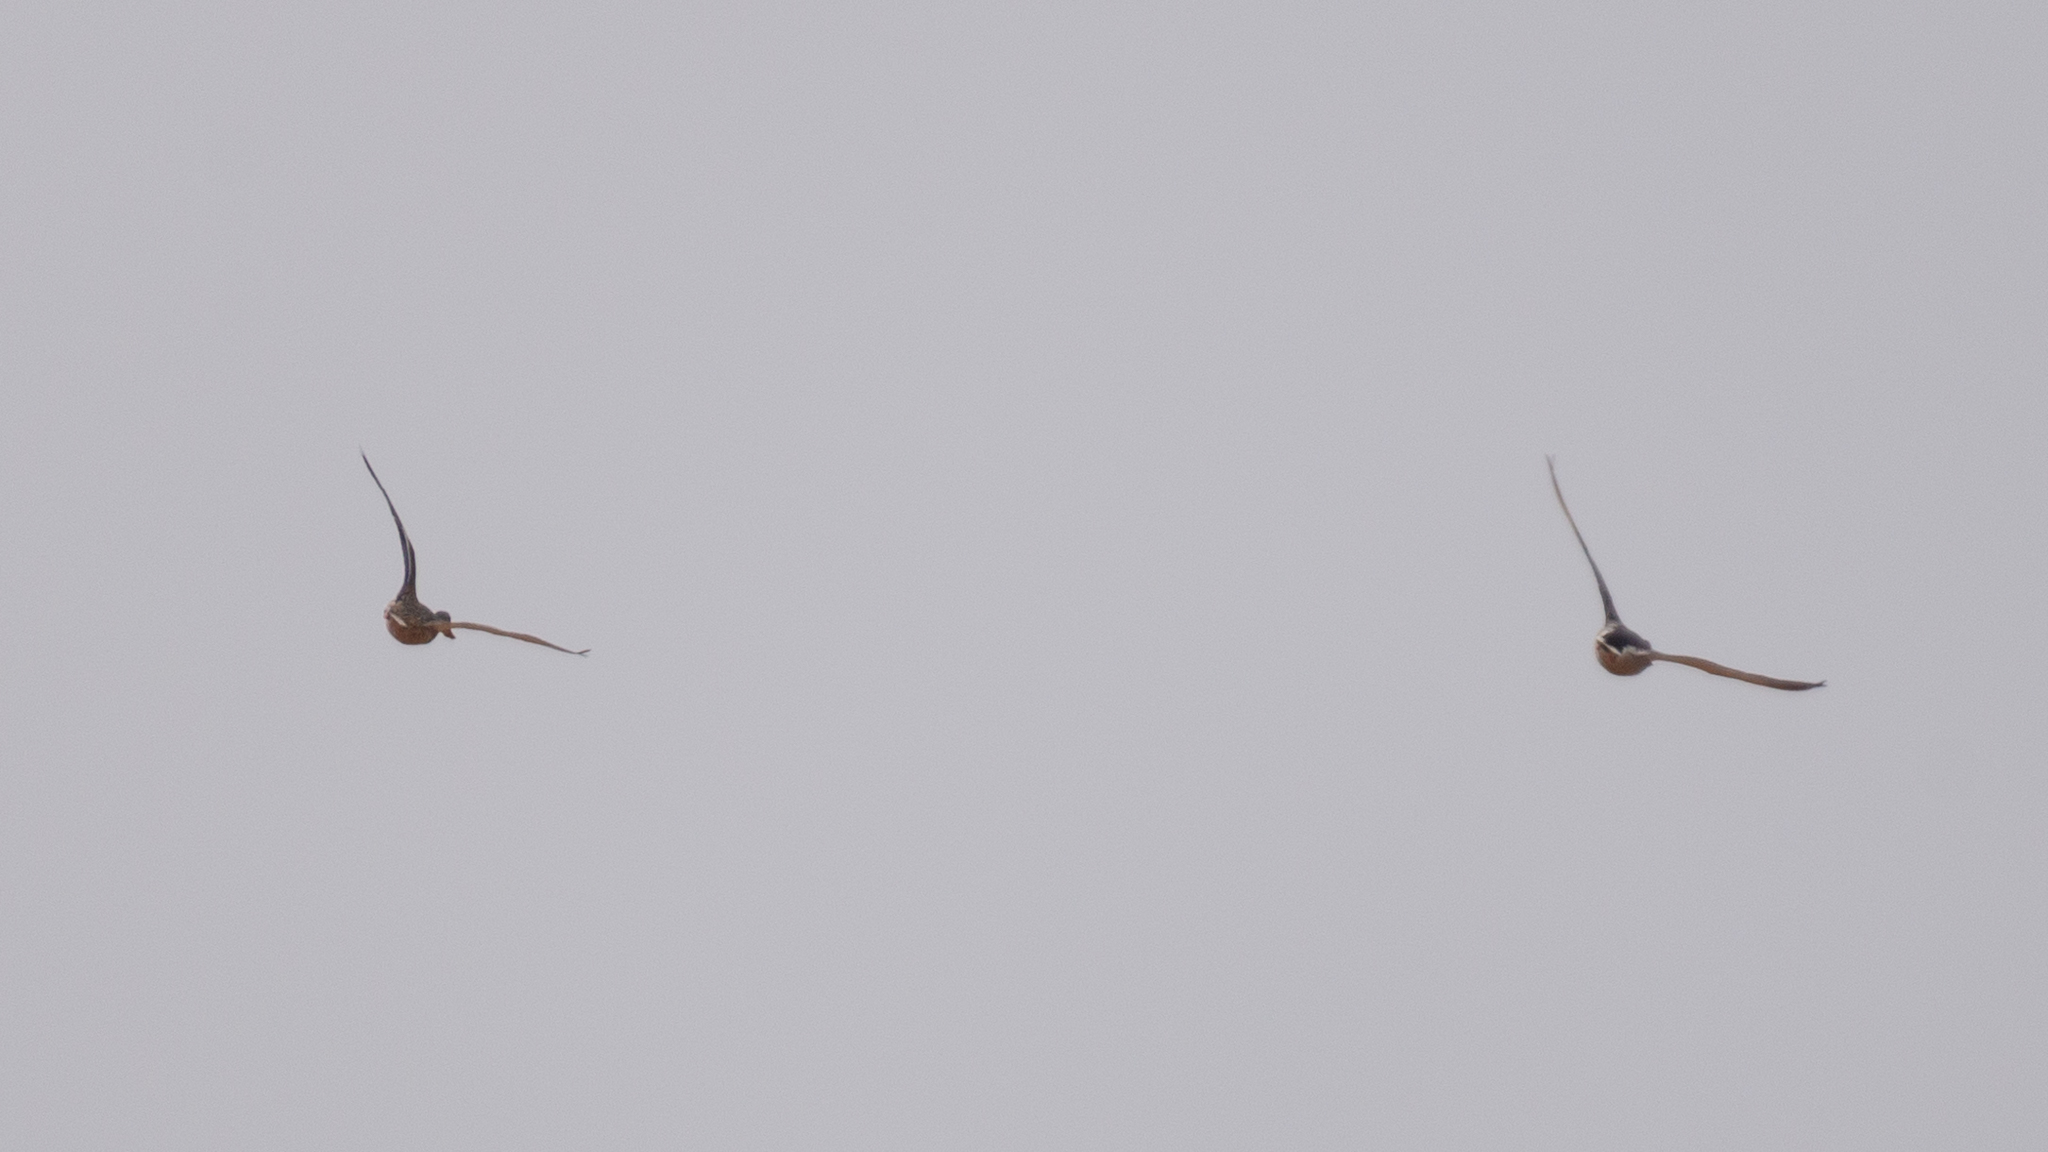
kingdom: Animalia
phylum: Chordata
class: Aves
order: Anseriformes
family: Anatidae
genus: Anas
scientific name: Anas platyrhynchos
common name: Mallard
